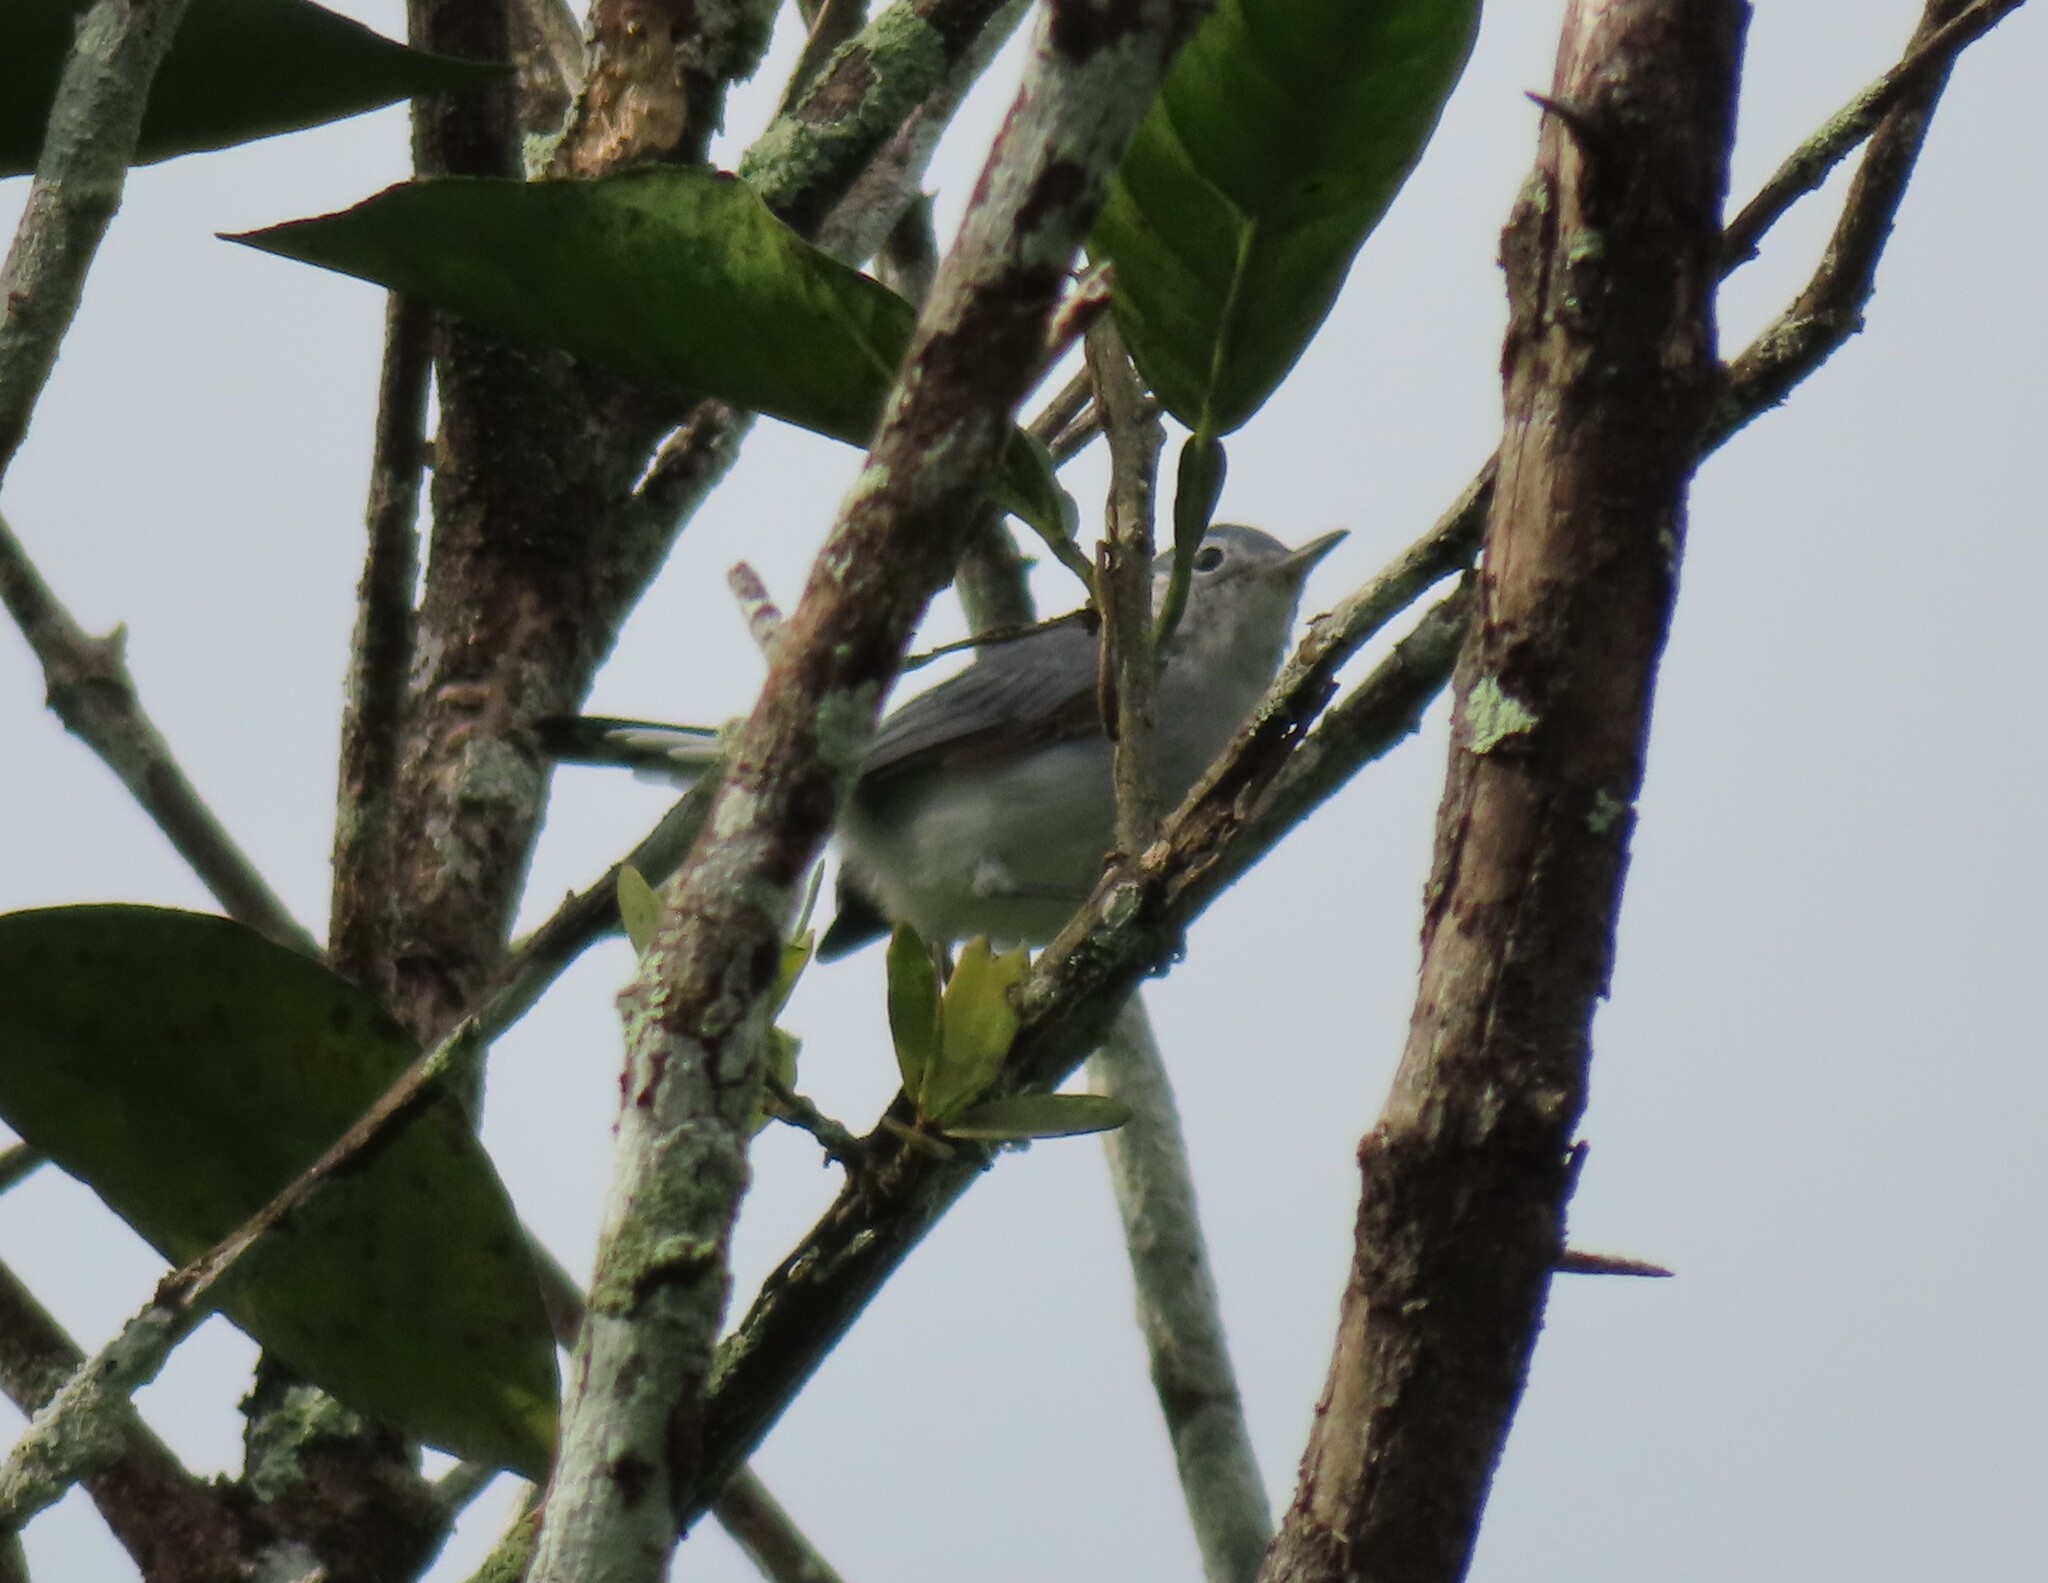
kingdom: Animalia
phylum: Chordata
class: Aves
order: Passeriformes
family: Polioptilidae
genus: Polioptila
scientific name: Polioptila plumbea
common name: Tropical gnatcatcher
